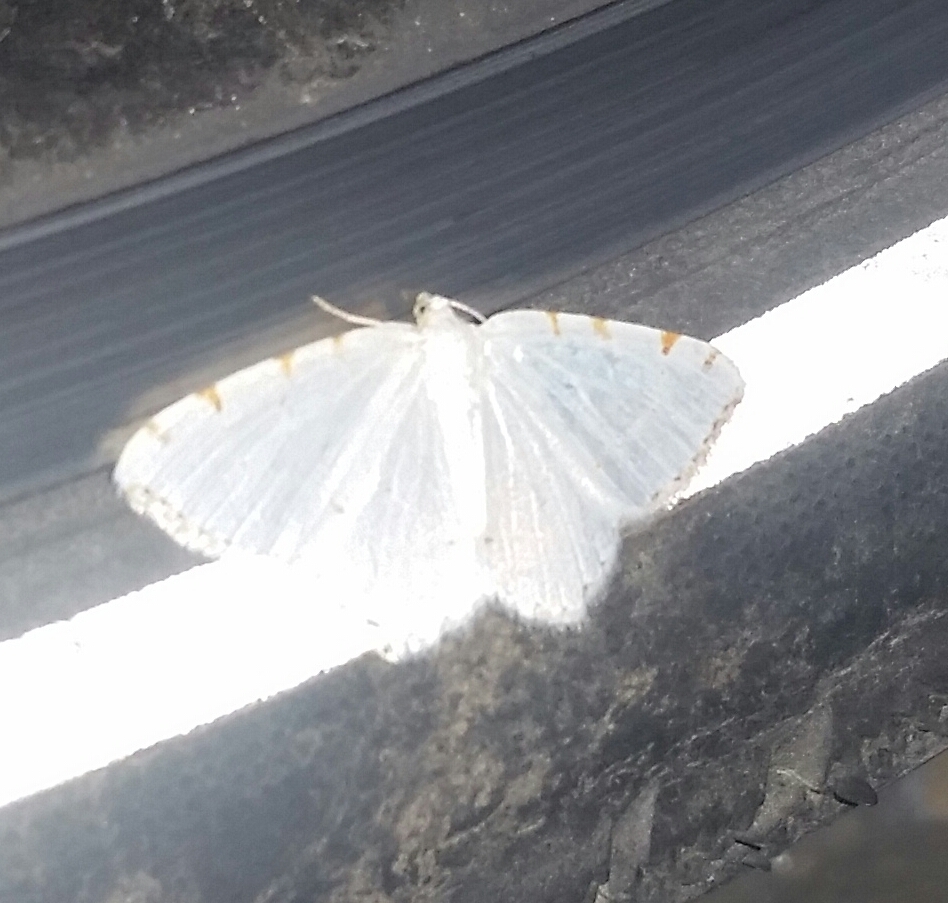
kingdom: Animalia
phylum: Arthropoda
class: Insecta
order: Lepidoptera
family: Geometridae
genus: Macaria
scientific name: Macaria pustularia
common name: Lesser maple spanworm moth
